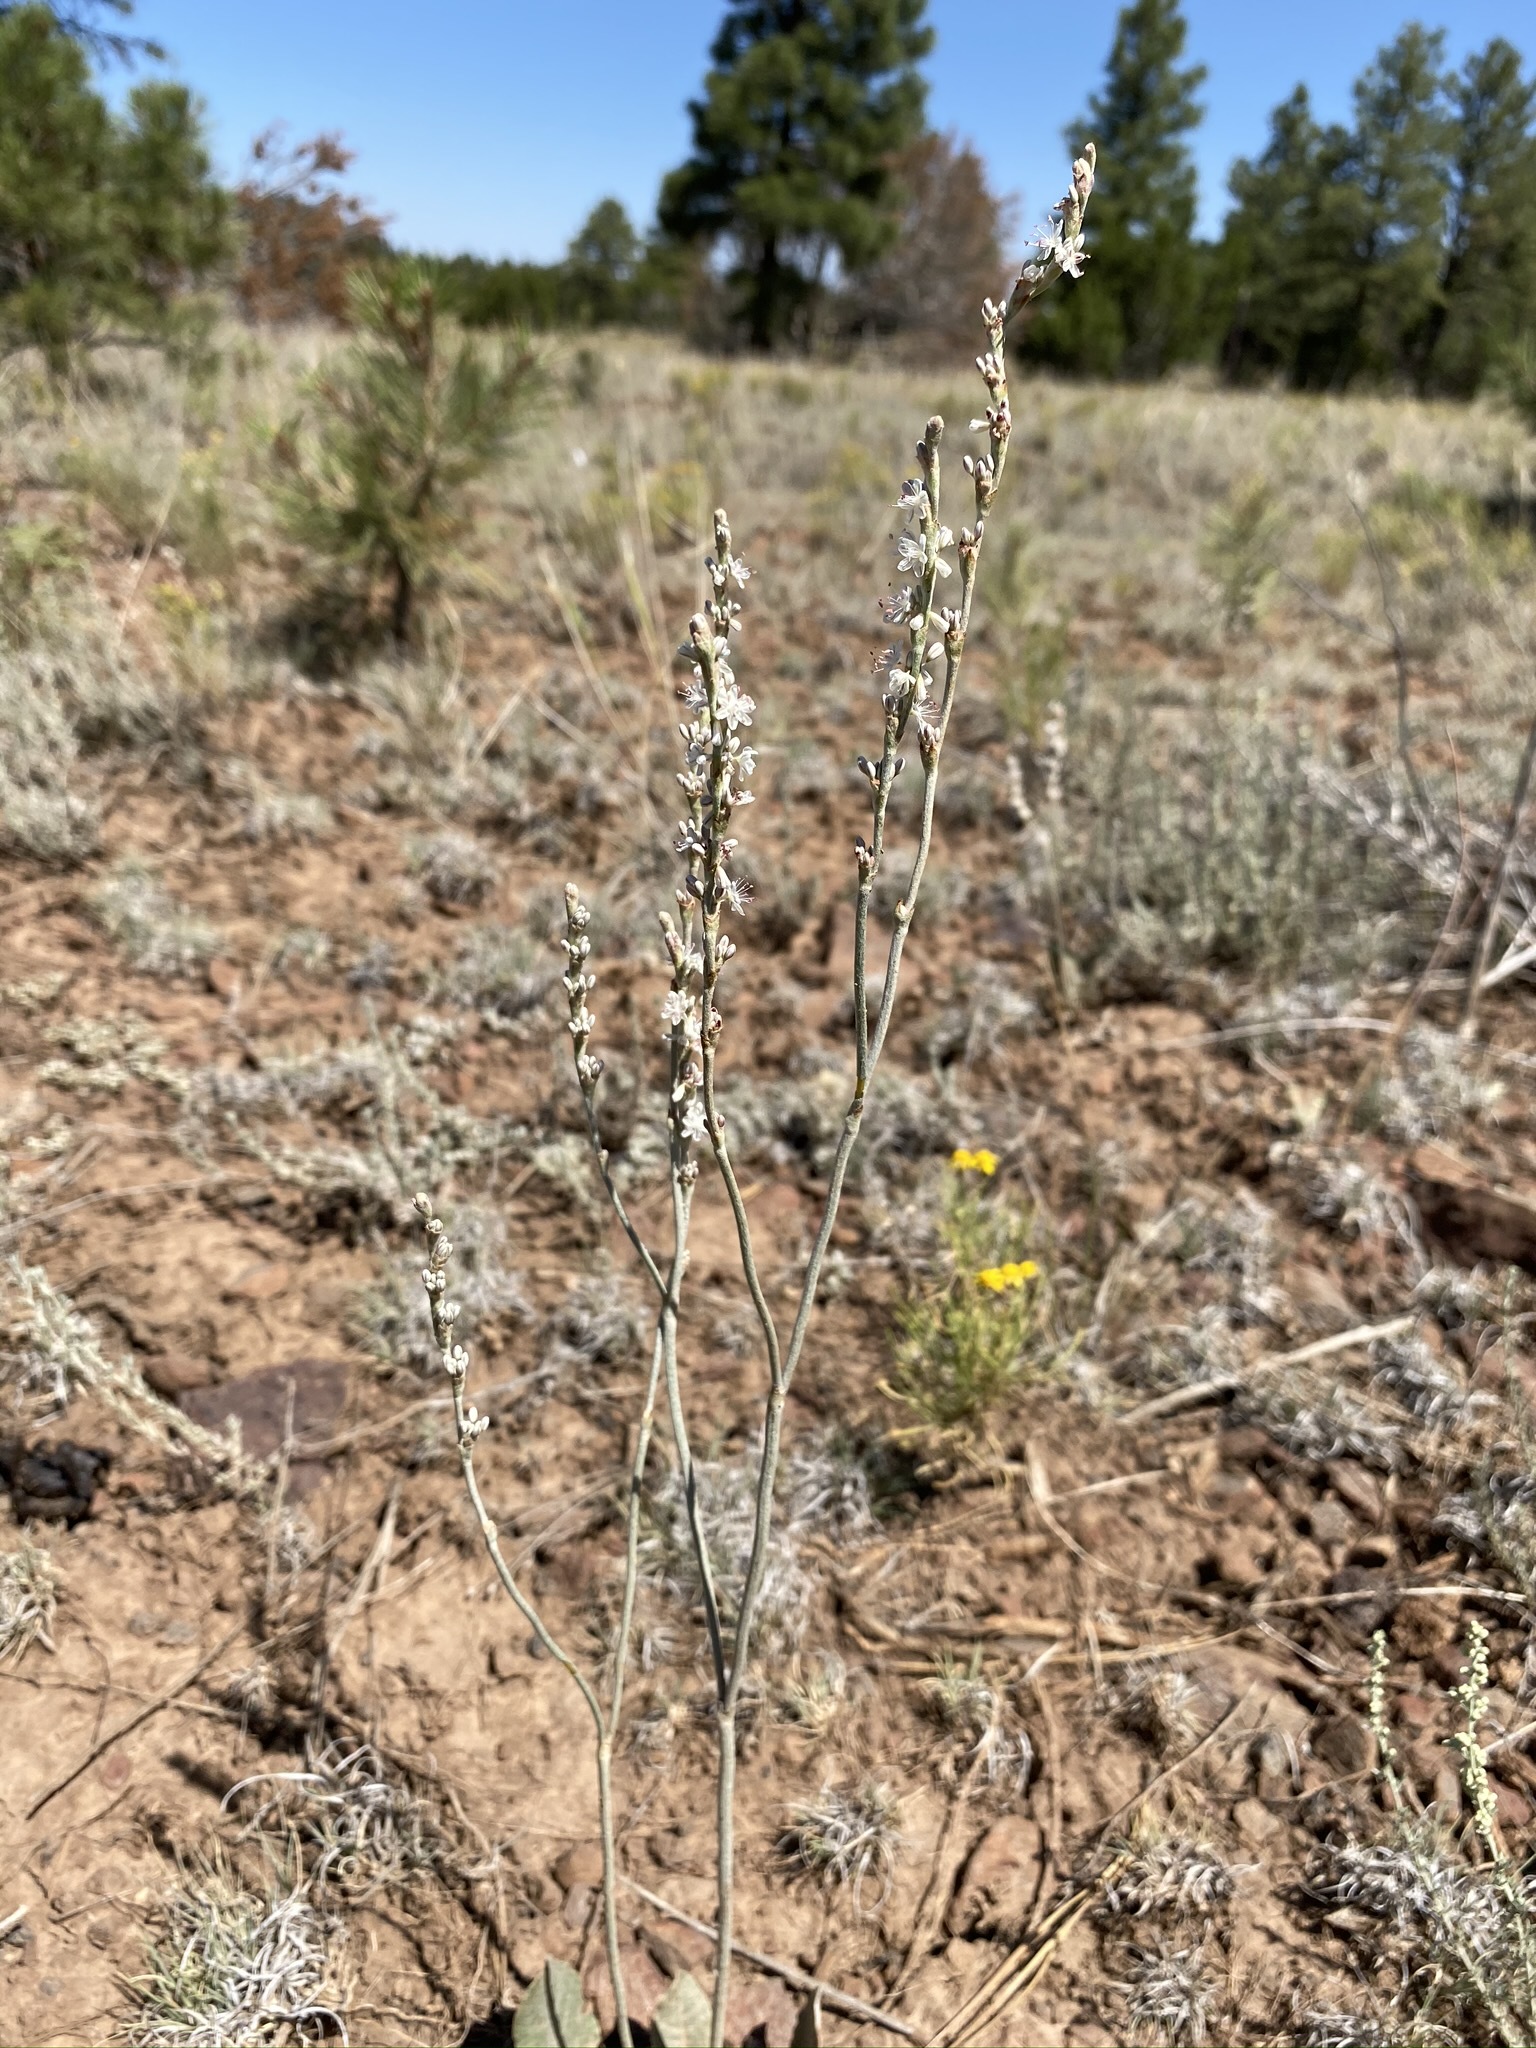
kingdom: Plantae
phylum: Tracheophyta
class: Magnoliopsida
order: Caryophyllales
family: Polygonaceae
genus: Eriogonum
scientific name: Eriogonum racemosum
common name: Redroot wild buckwheat
